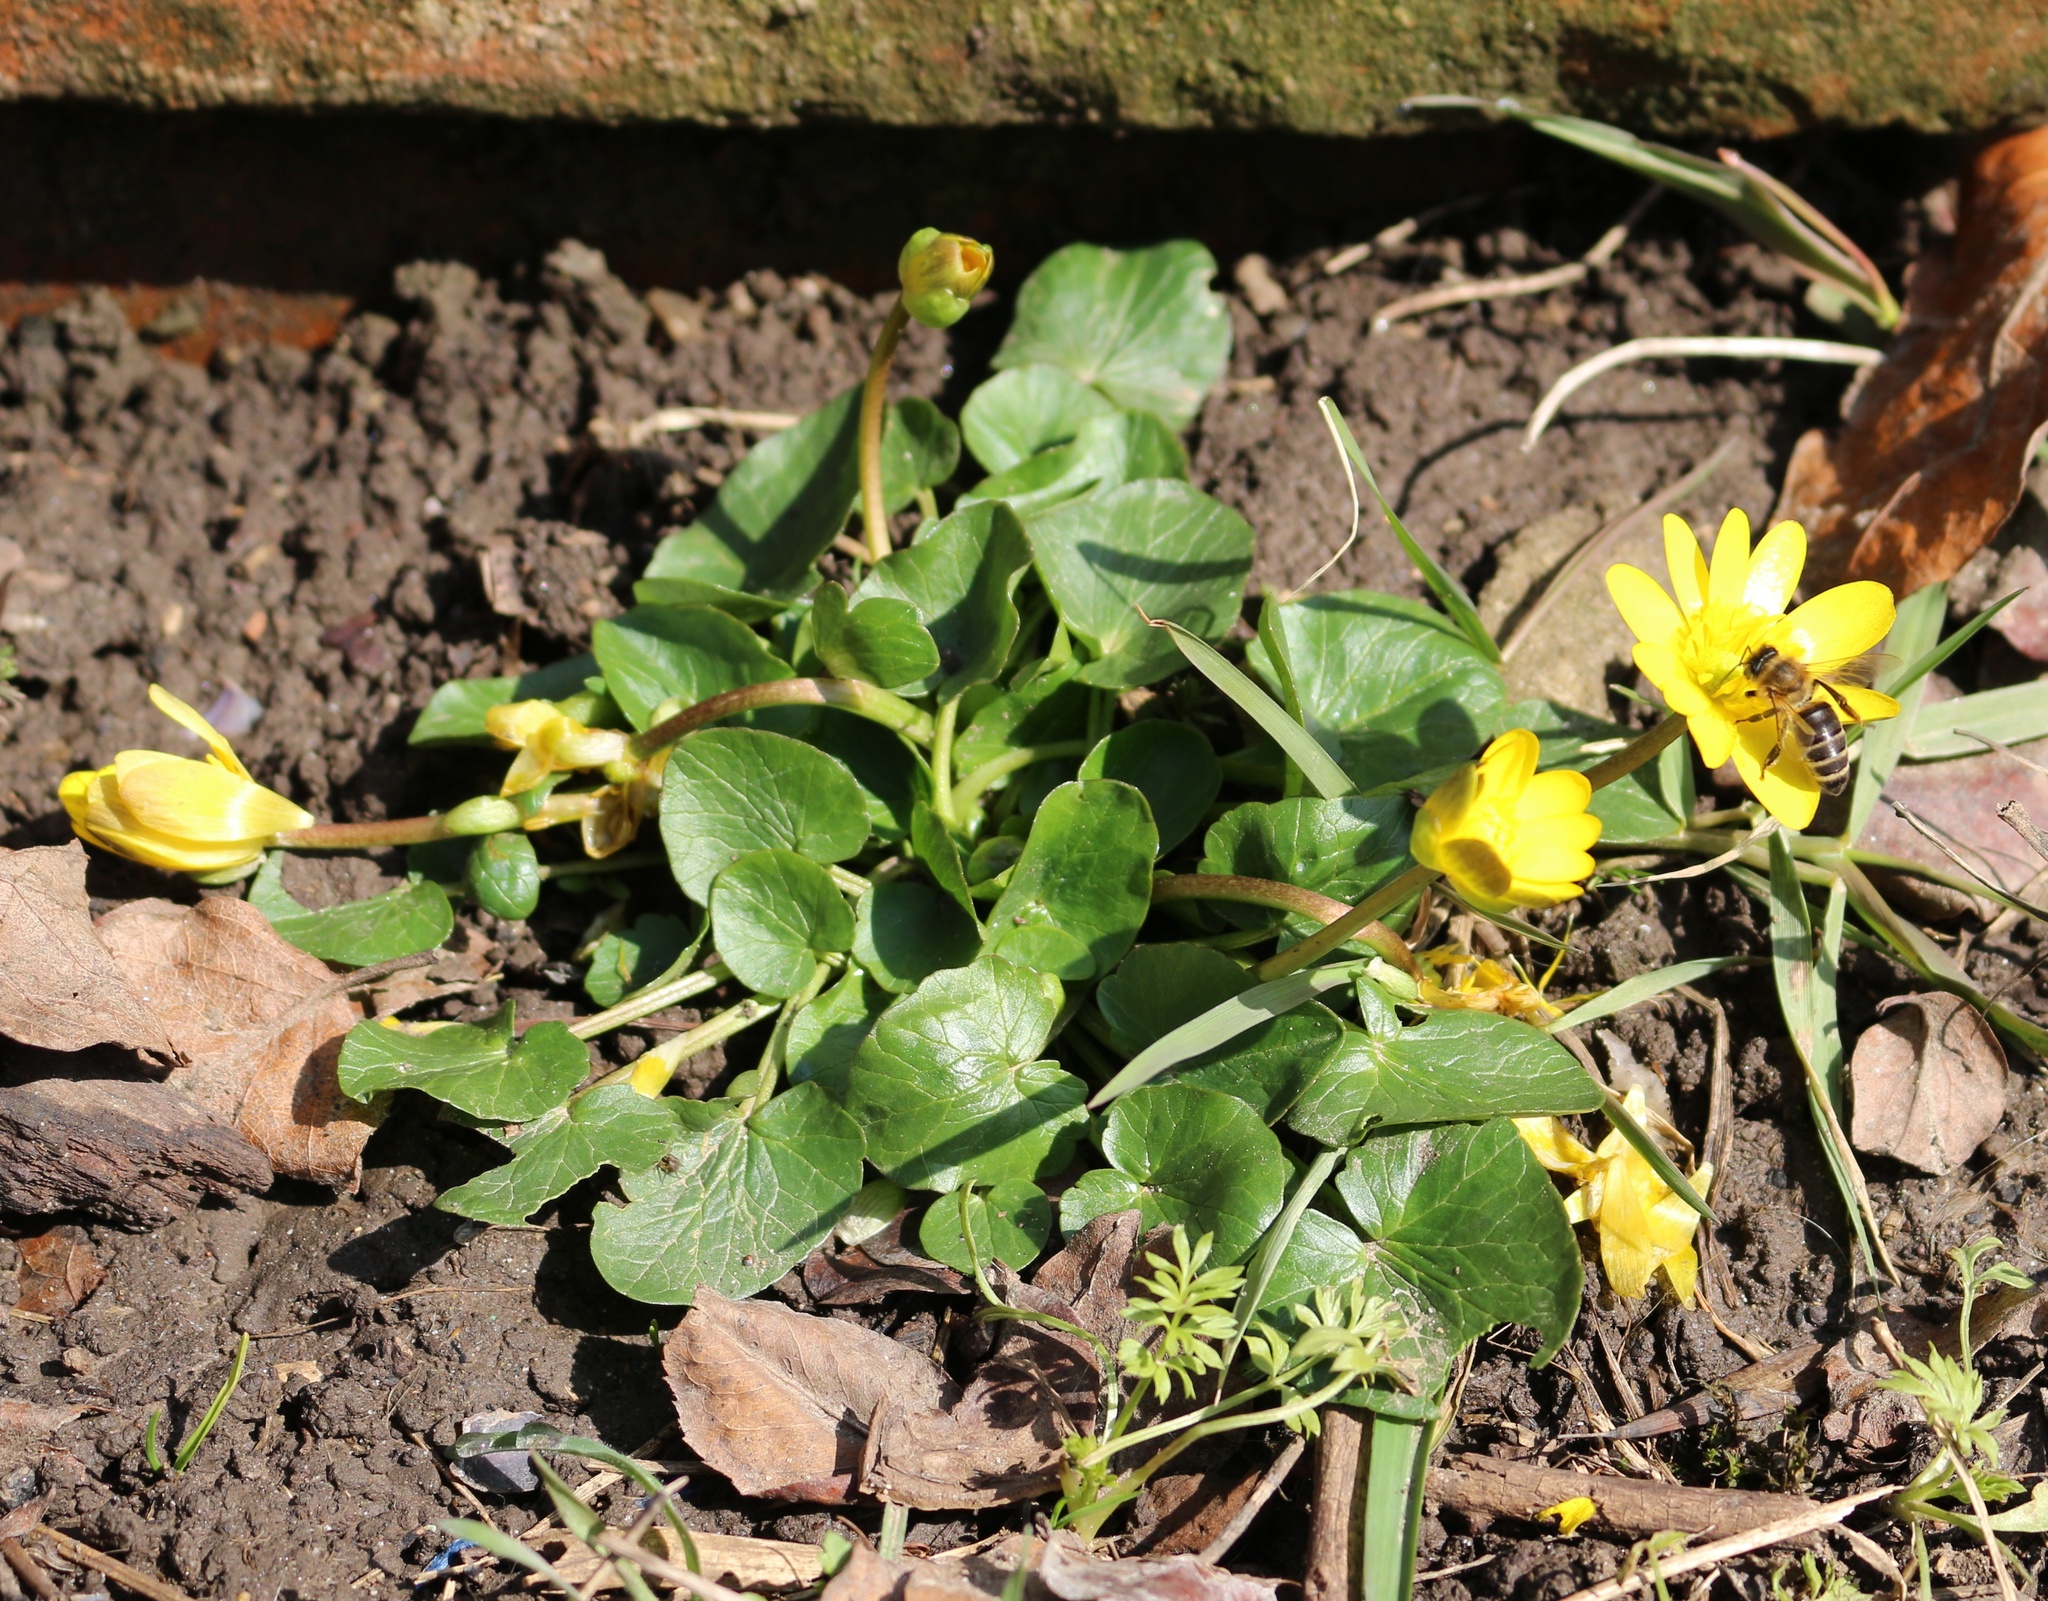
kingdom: Plantae
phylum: Tracheophyta
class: Magnoliopsida
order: Ranunculales
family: Ranunculaceae
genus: Ficaria
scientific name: Ficaria verna
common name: Lesser celandine
